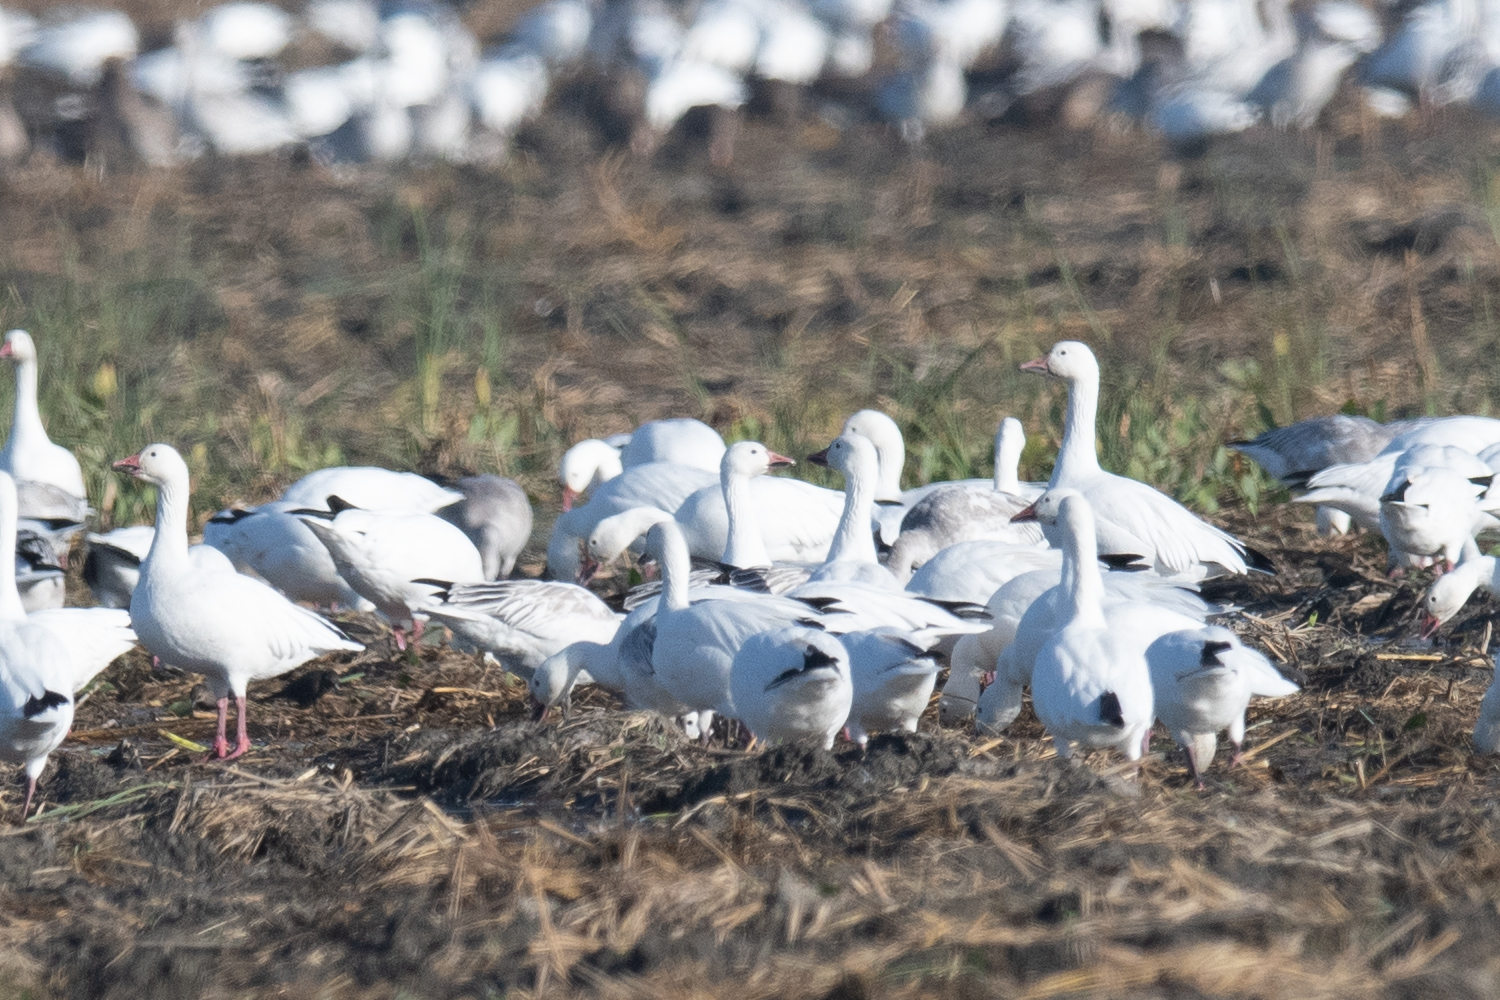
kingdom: Animalia
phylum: Chordata
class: Aves
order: Anseriformes
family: Anatidae
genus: Anser
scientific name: Anser caerulescens
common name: Snow goose
